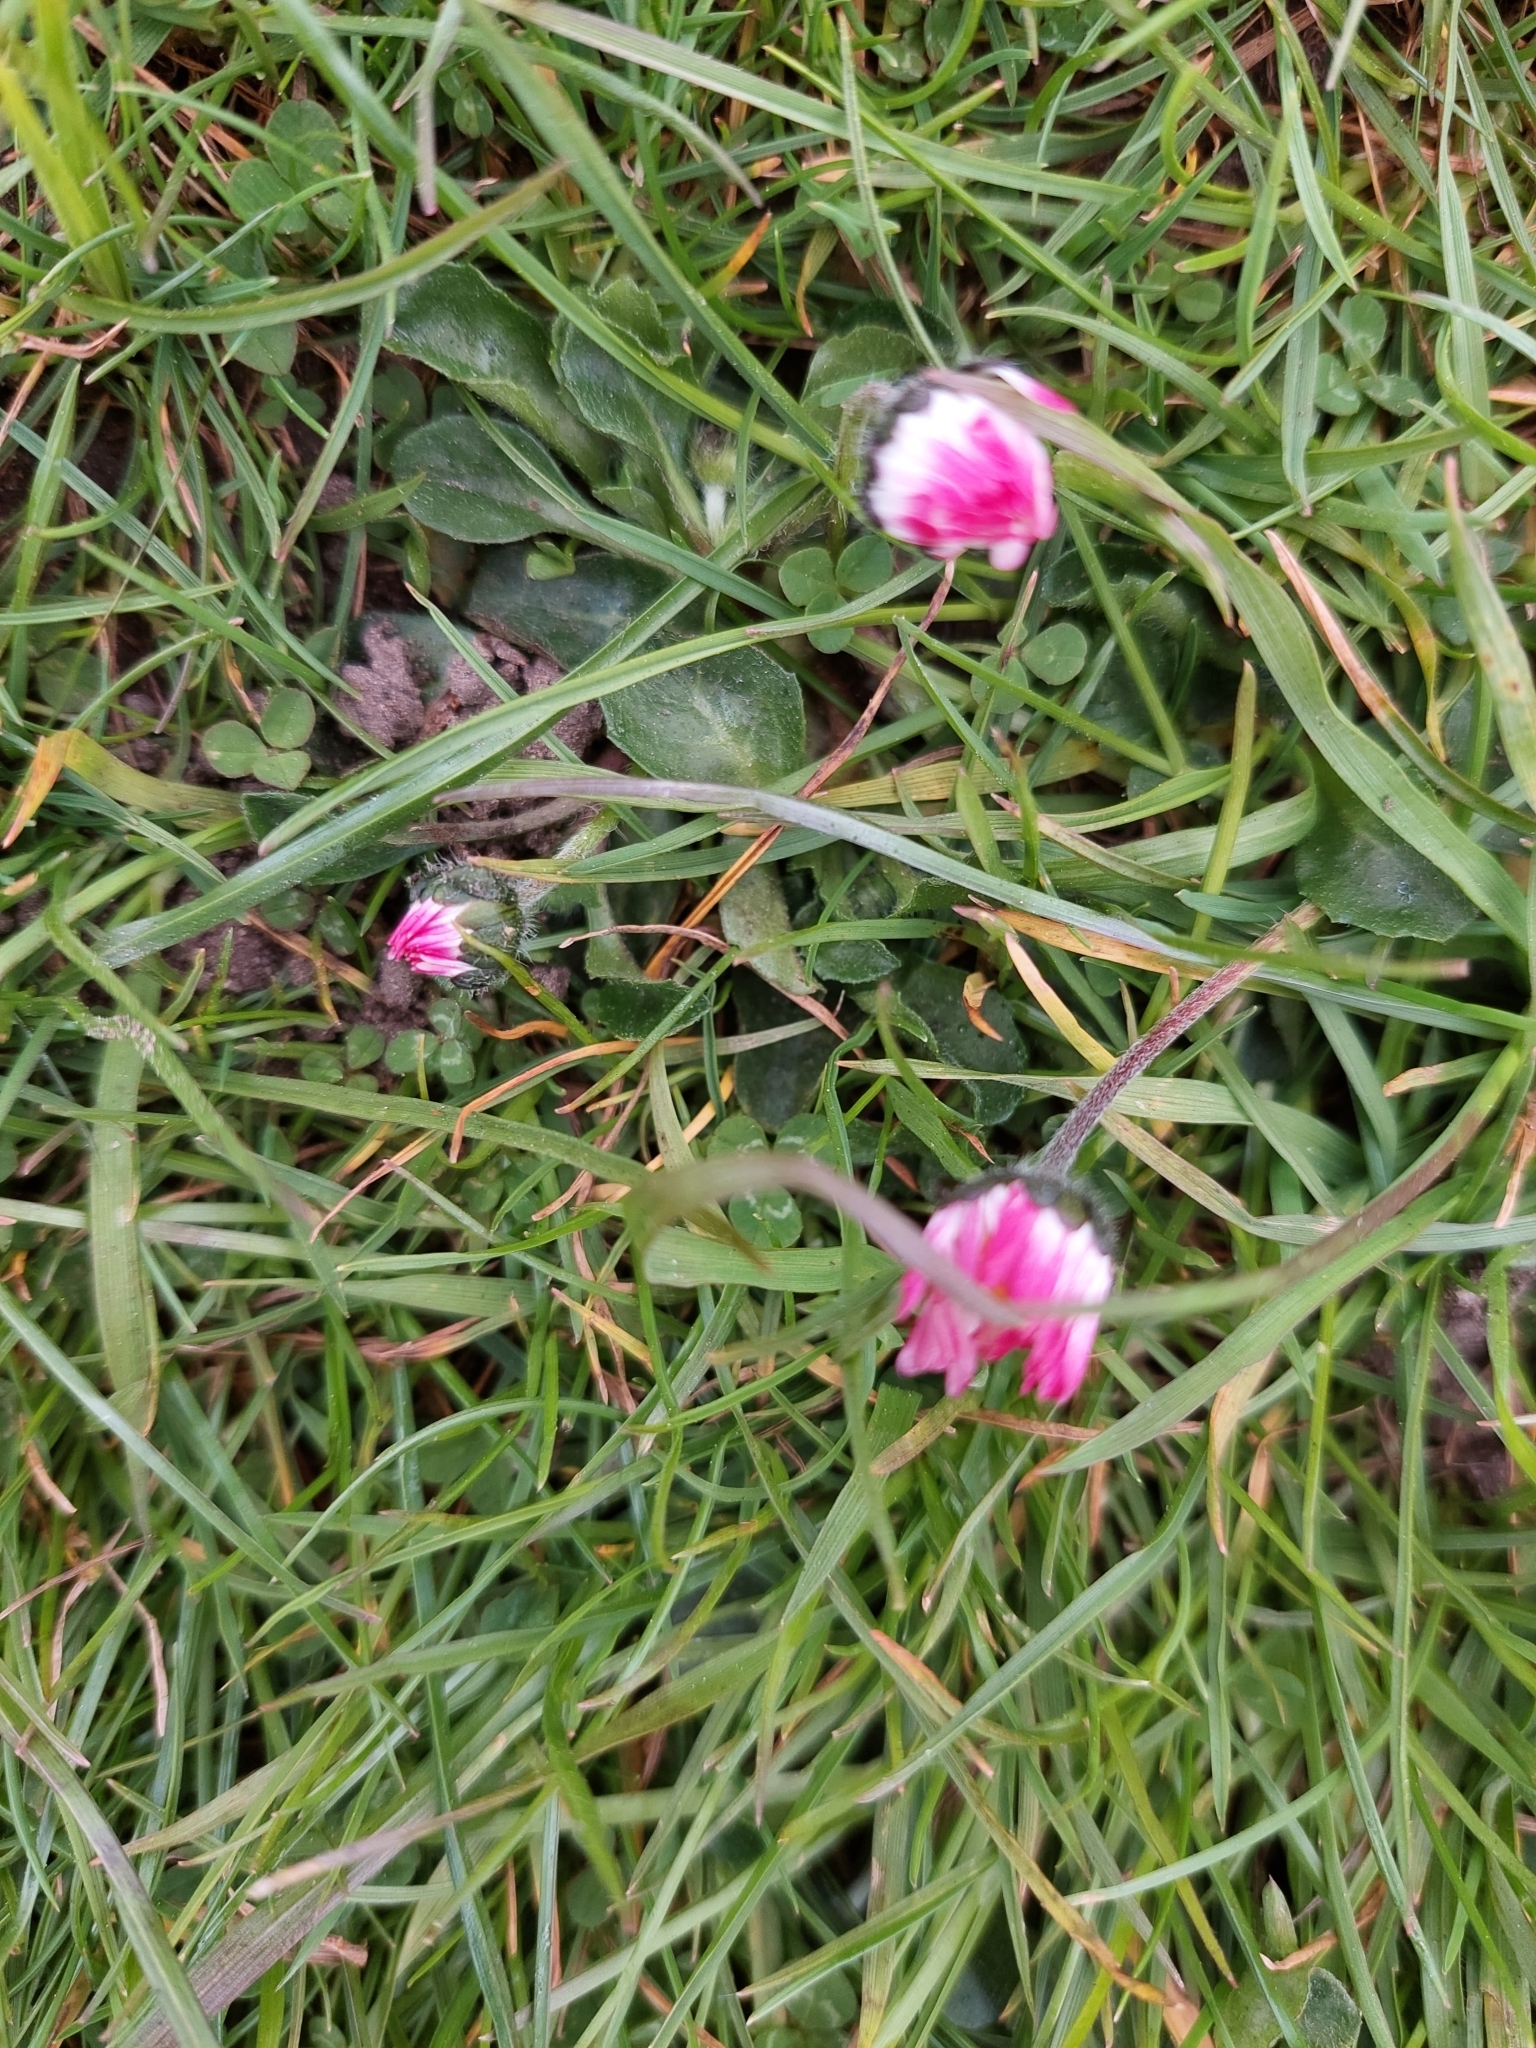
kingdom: Plantae
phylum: Tracheophyta
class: Magnoliopsida
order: Asterales
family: Asteraceae
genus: Bellis
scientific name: Bellis perennis
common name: Lawndaisy
